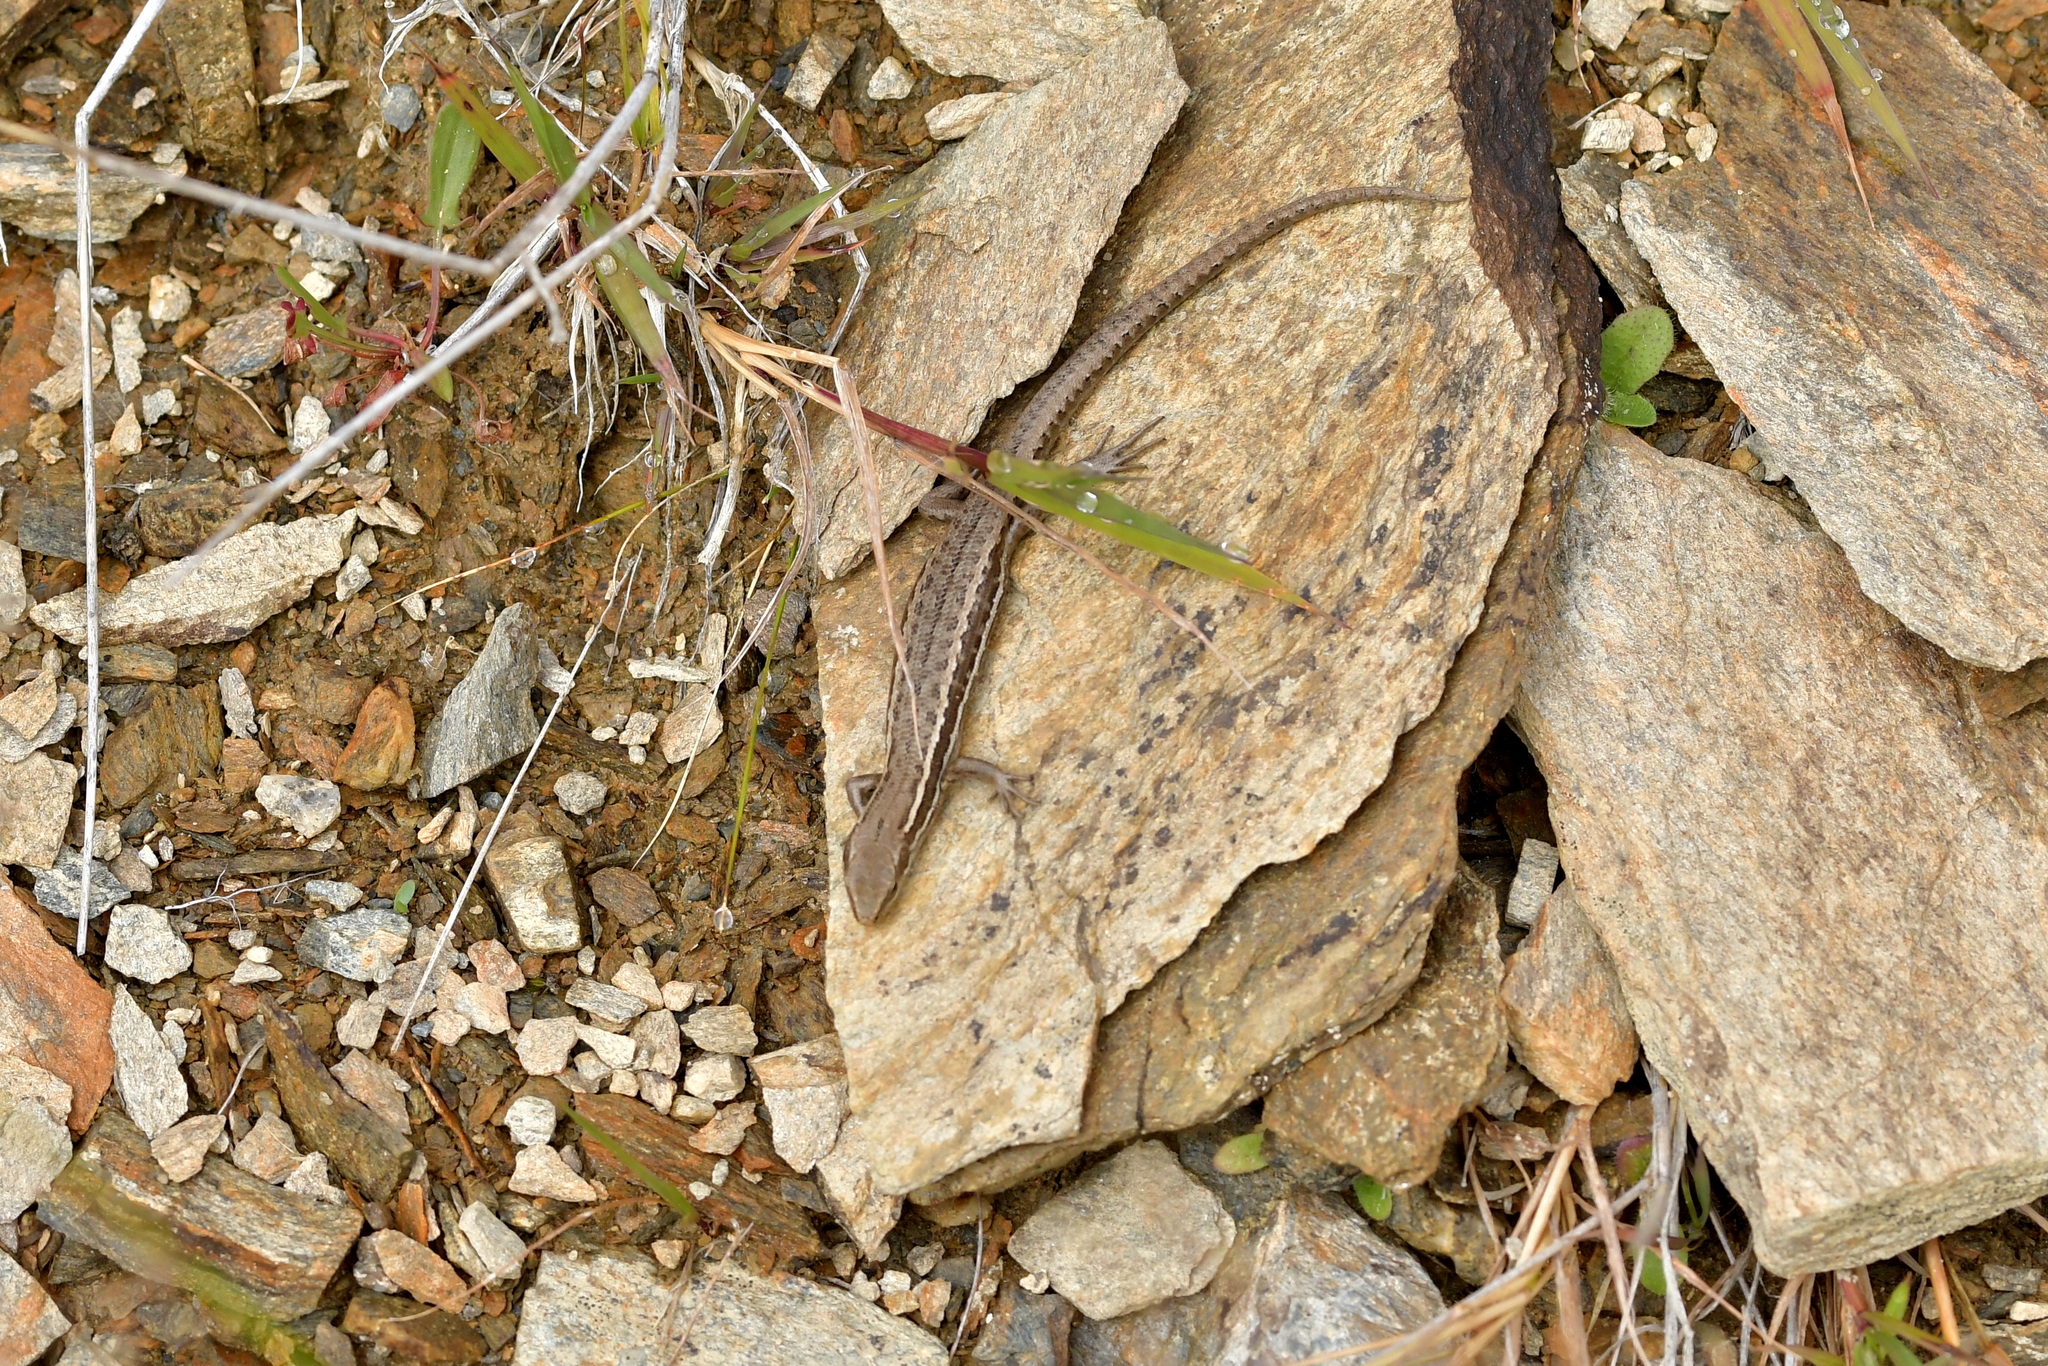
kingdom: Animalia
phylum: Chordata
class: Squamata
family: Scincidae
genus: Oligosoma
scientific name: Oligosoma maccanni
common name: Mccann’s skink
